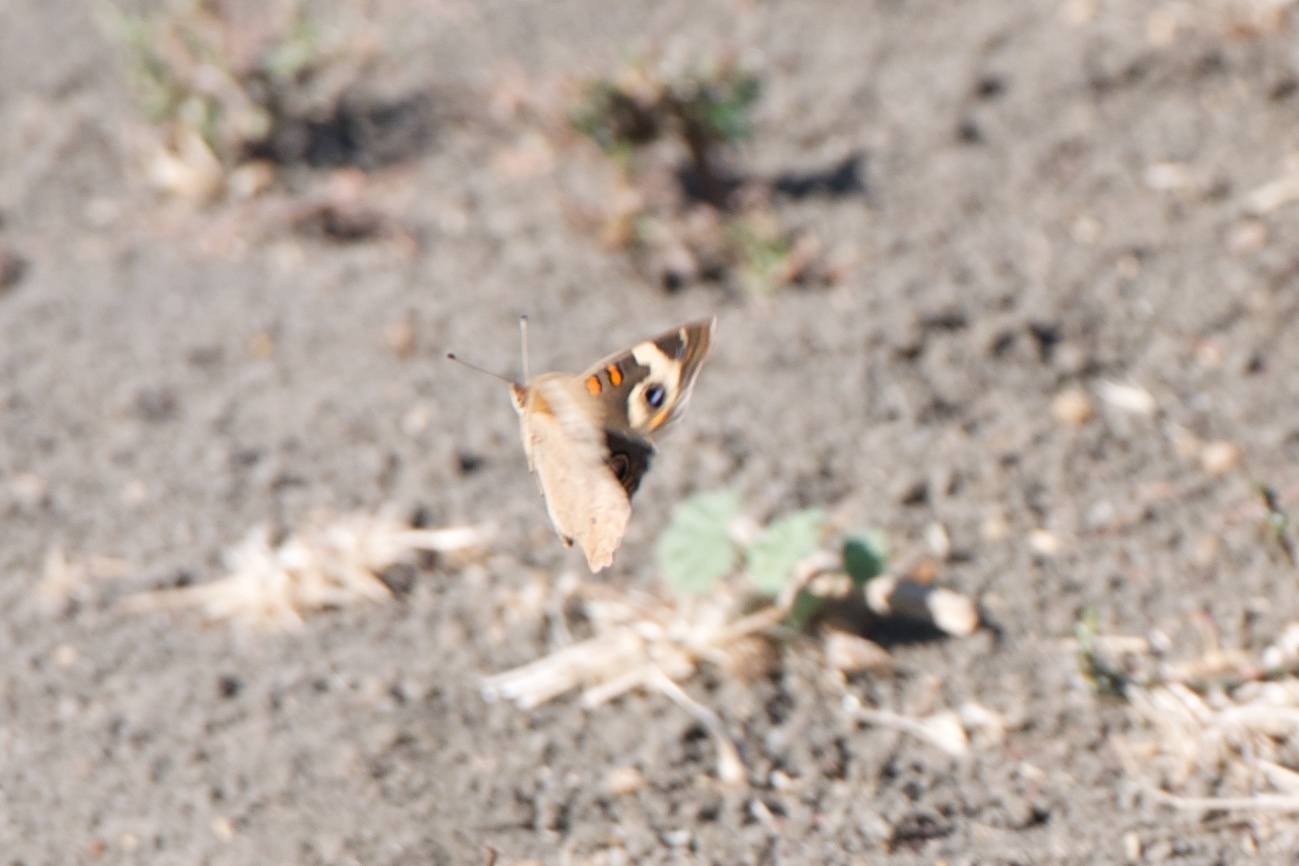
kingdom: Animalia
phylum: Arthropoda
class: Insecta
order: Lepidoptera
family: Nymphalidae
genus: Junonia
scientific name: Junonia grisea
